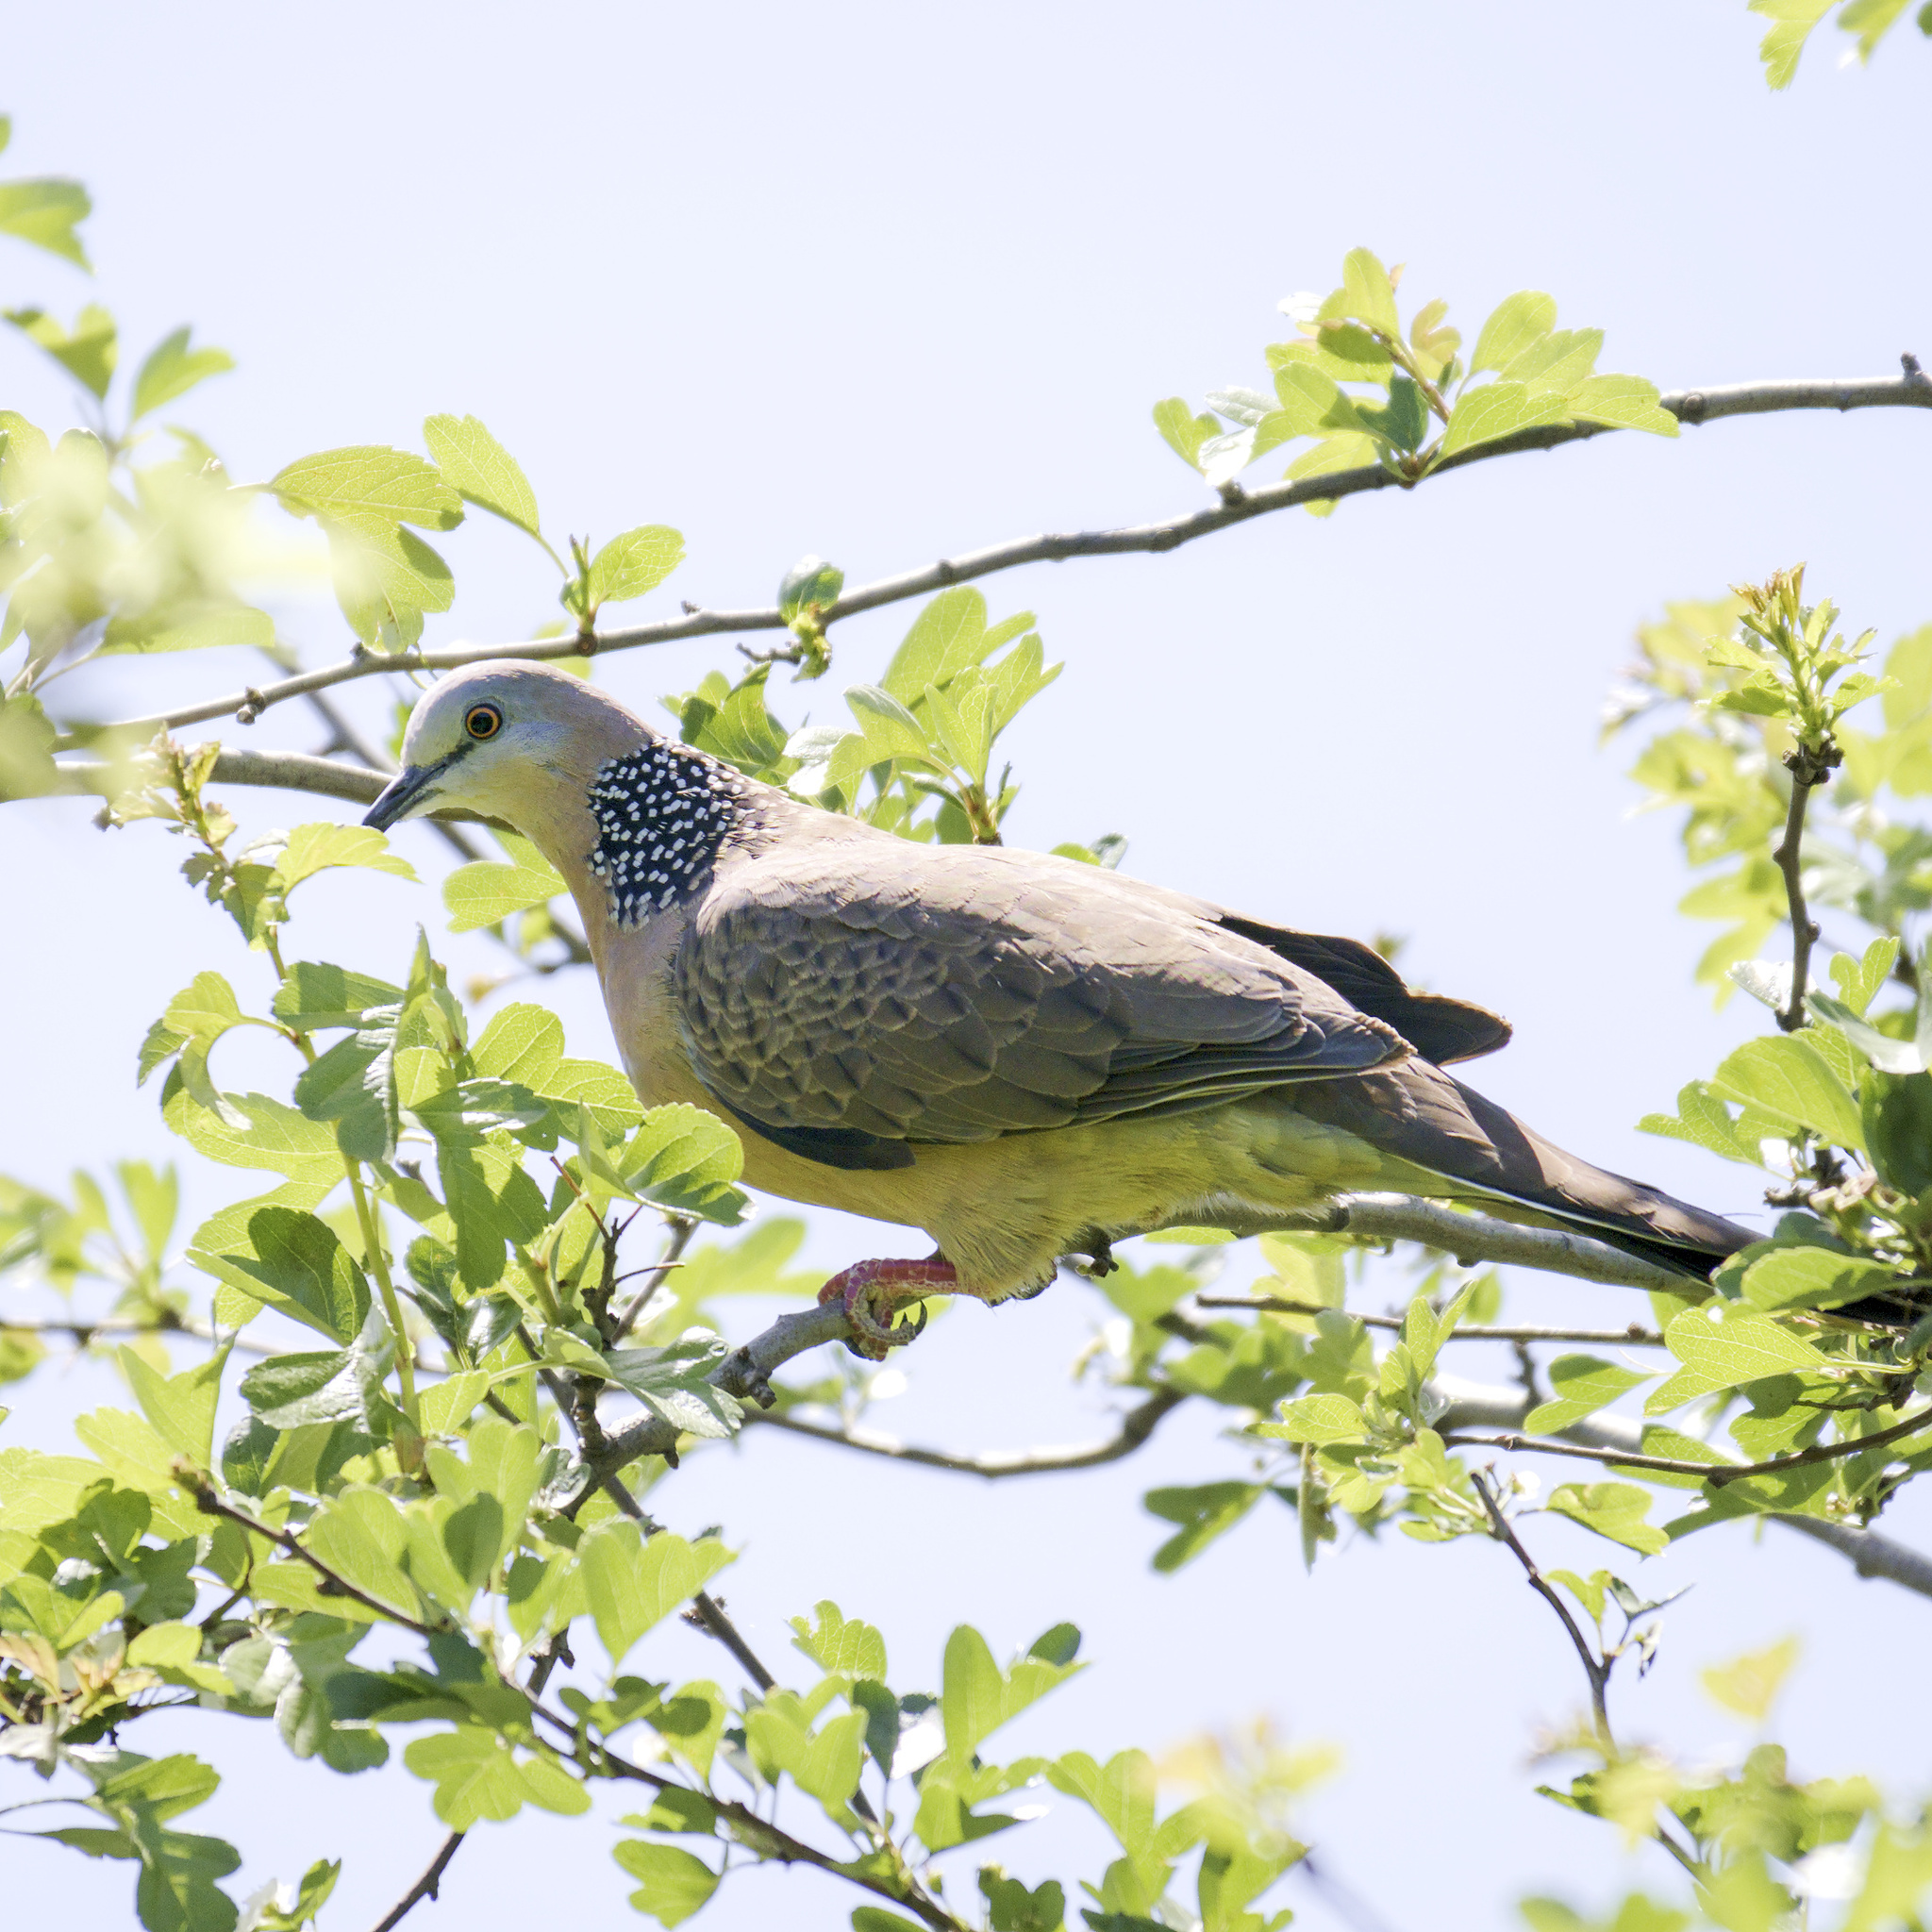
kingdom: Animalia
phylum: Chordata
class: Aves
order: Columbiformes
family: Columbidae
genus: Spilopelia
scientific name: Spilopelia chinensis
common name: Spotted dove
